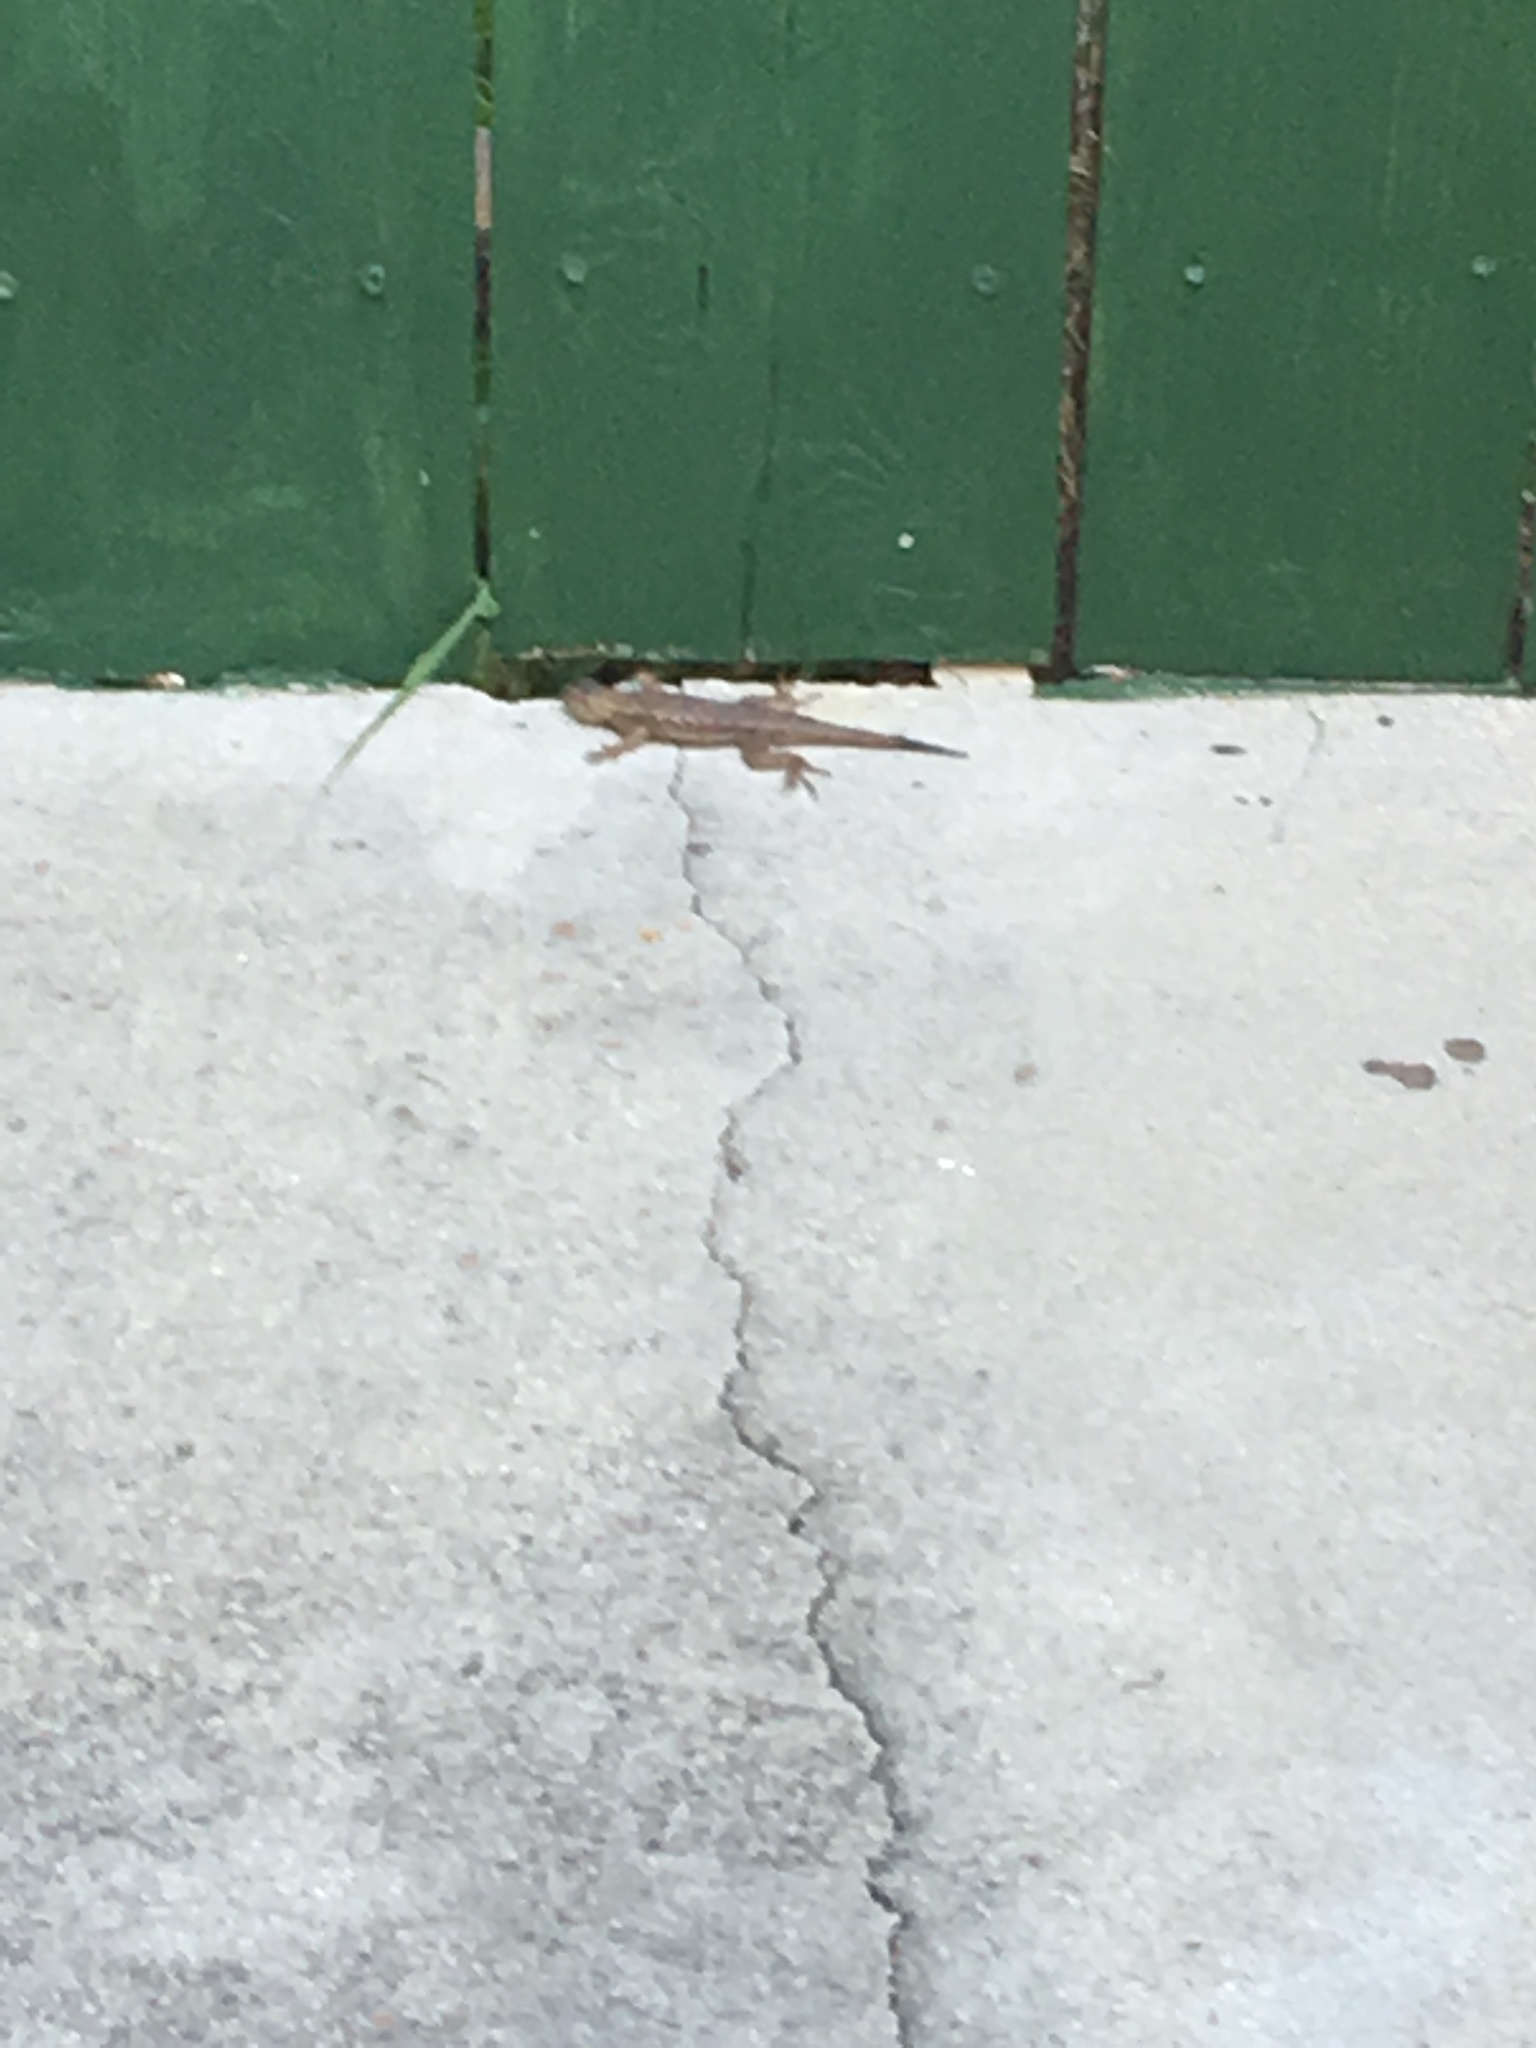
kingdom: Animalia
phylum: Chordata
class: Squamata
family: Phrynosomatidae
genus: Sceloporus
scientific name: Sceloporus occidentalis
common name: Western fence lizard
